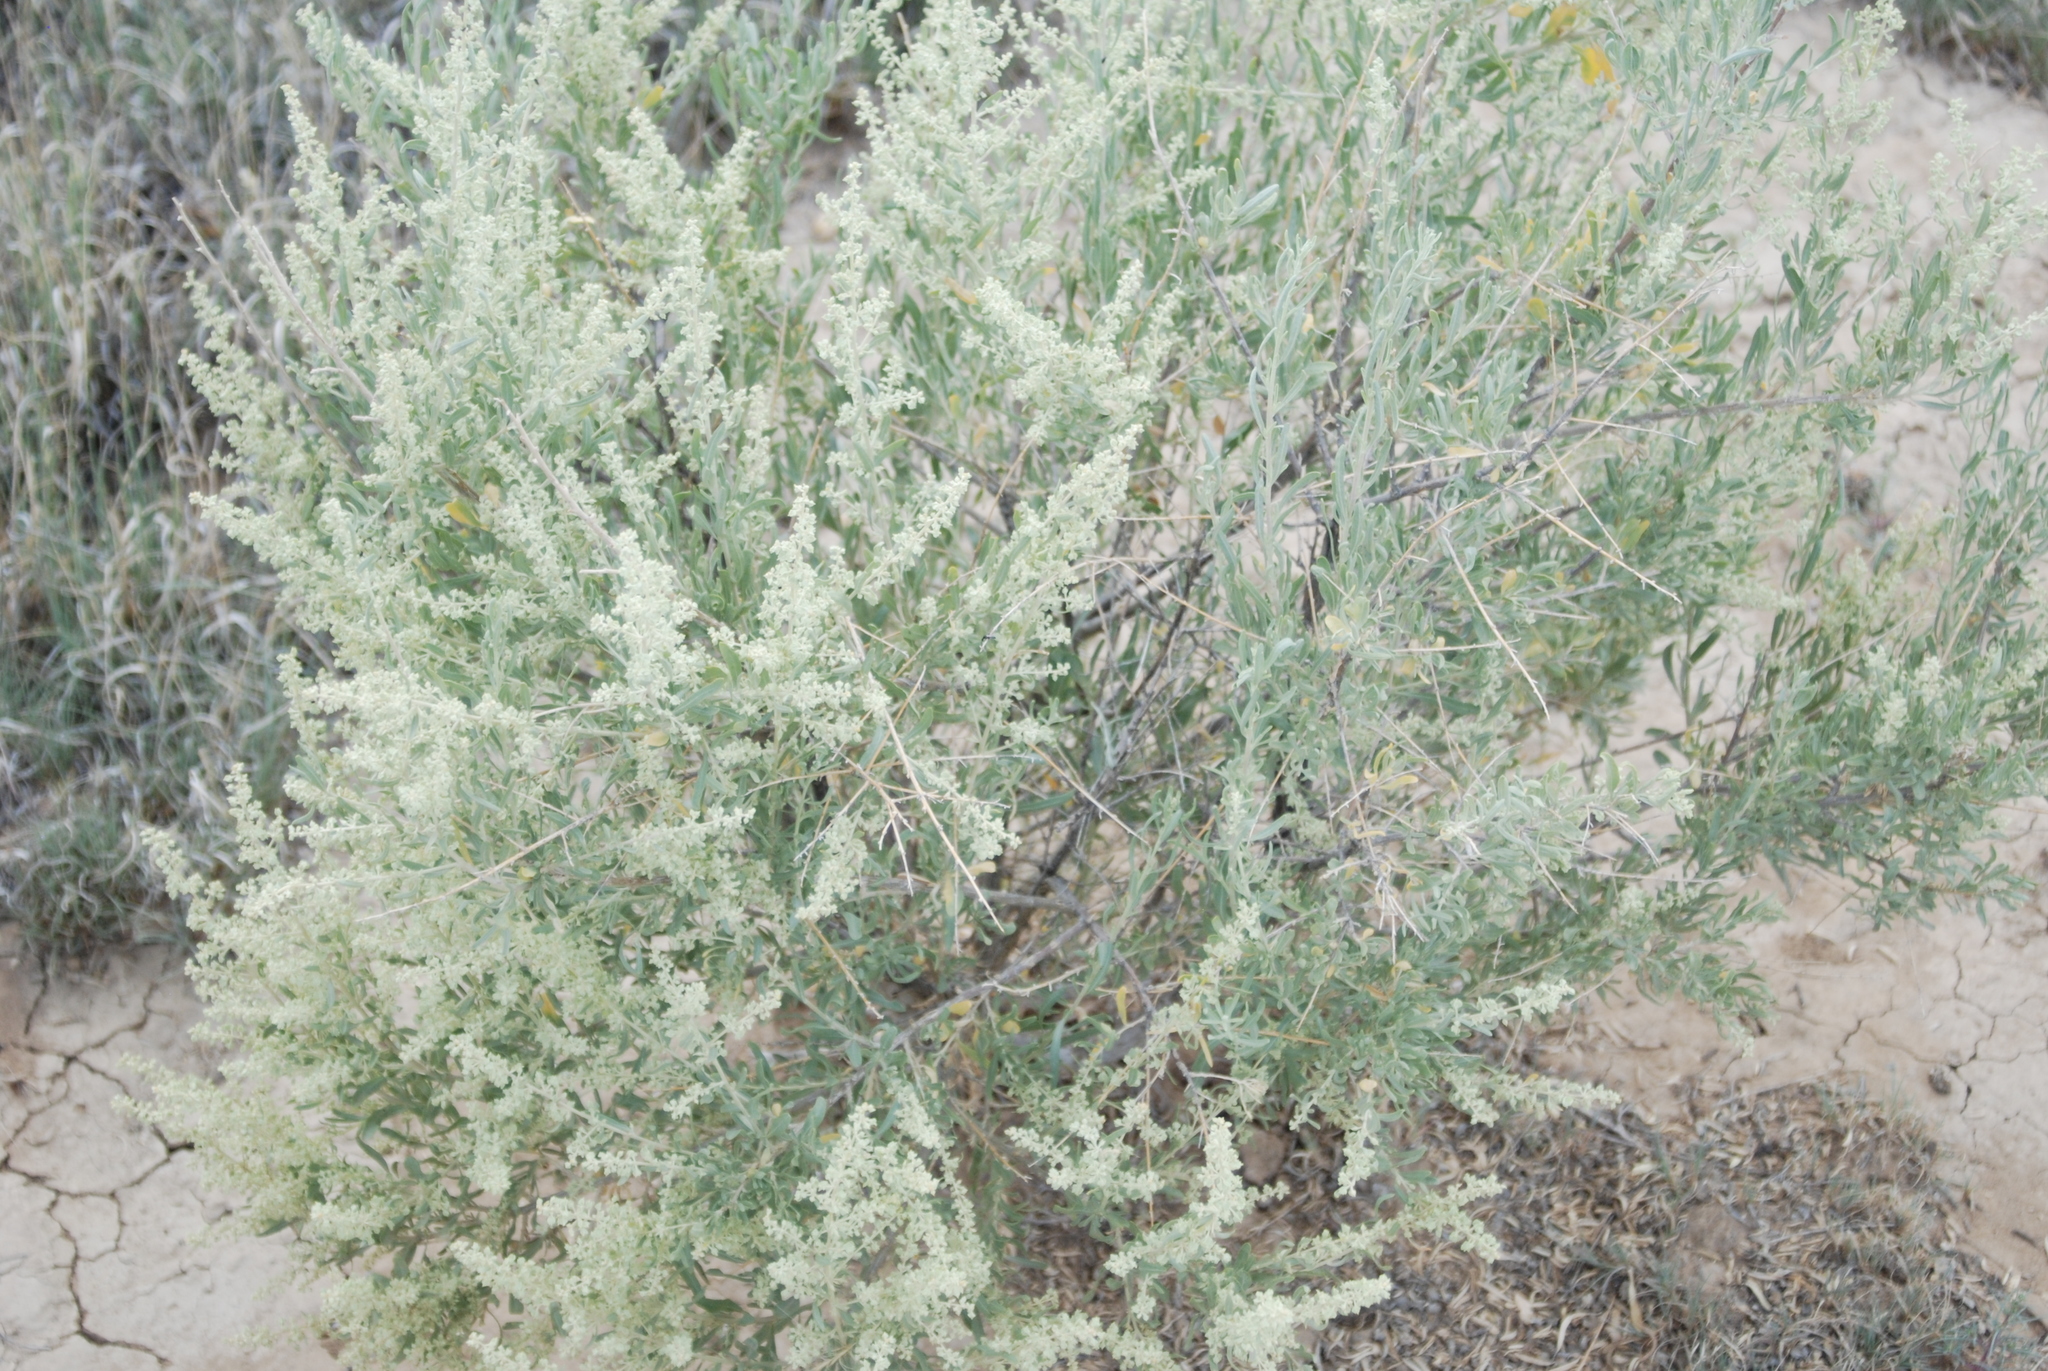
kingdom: Plantae
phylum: Tracheophyta
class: Magnoliopsida
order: Caryophyllales
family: Amaranthaceae
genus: Atriplex
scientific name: Atriplex canescens
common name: Four-wing saltbush
